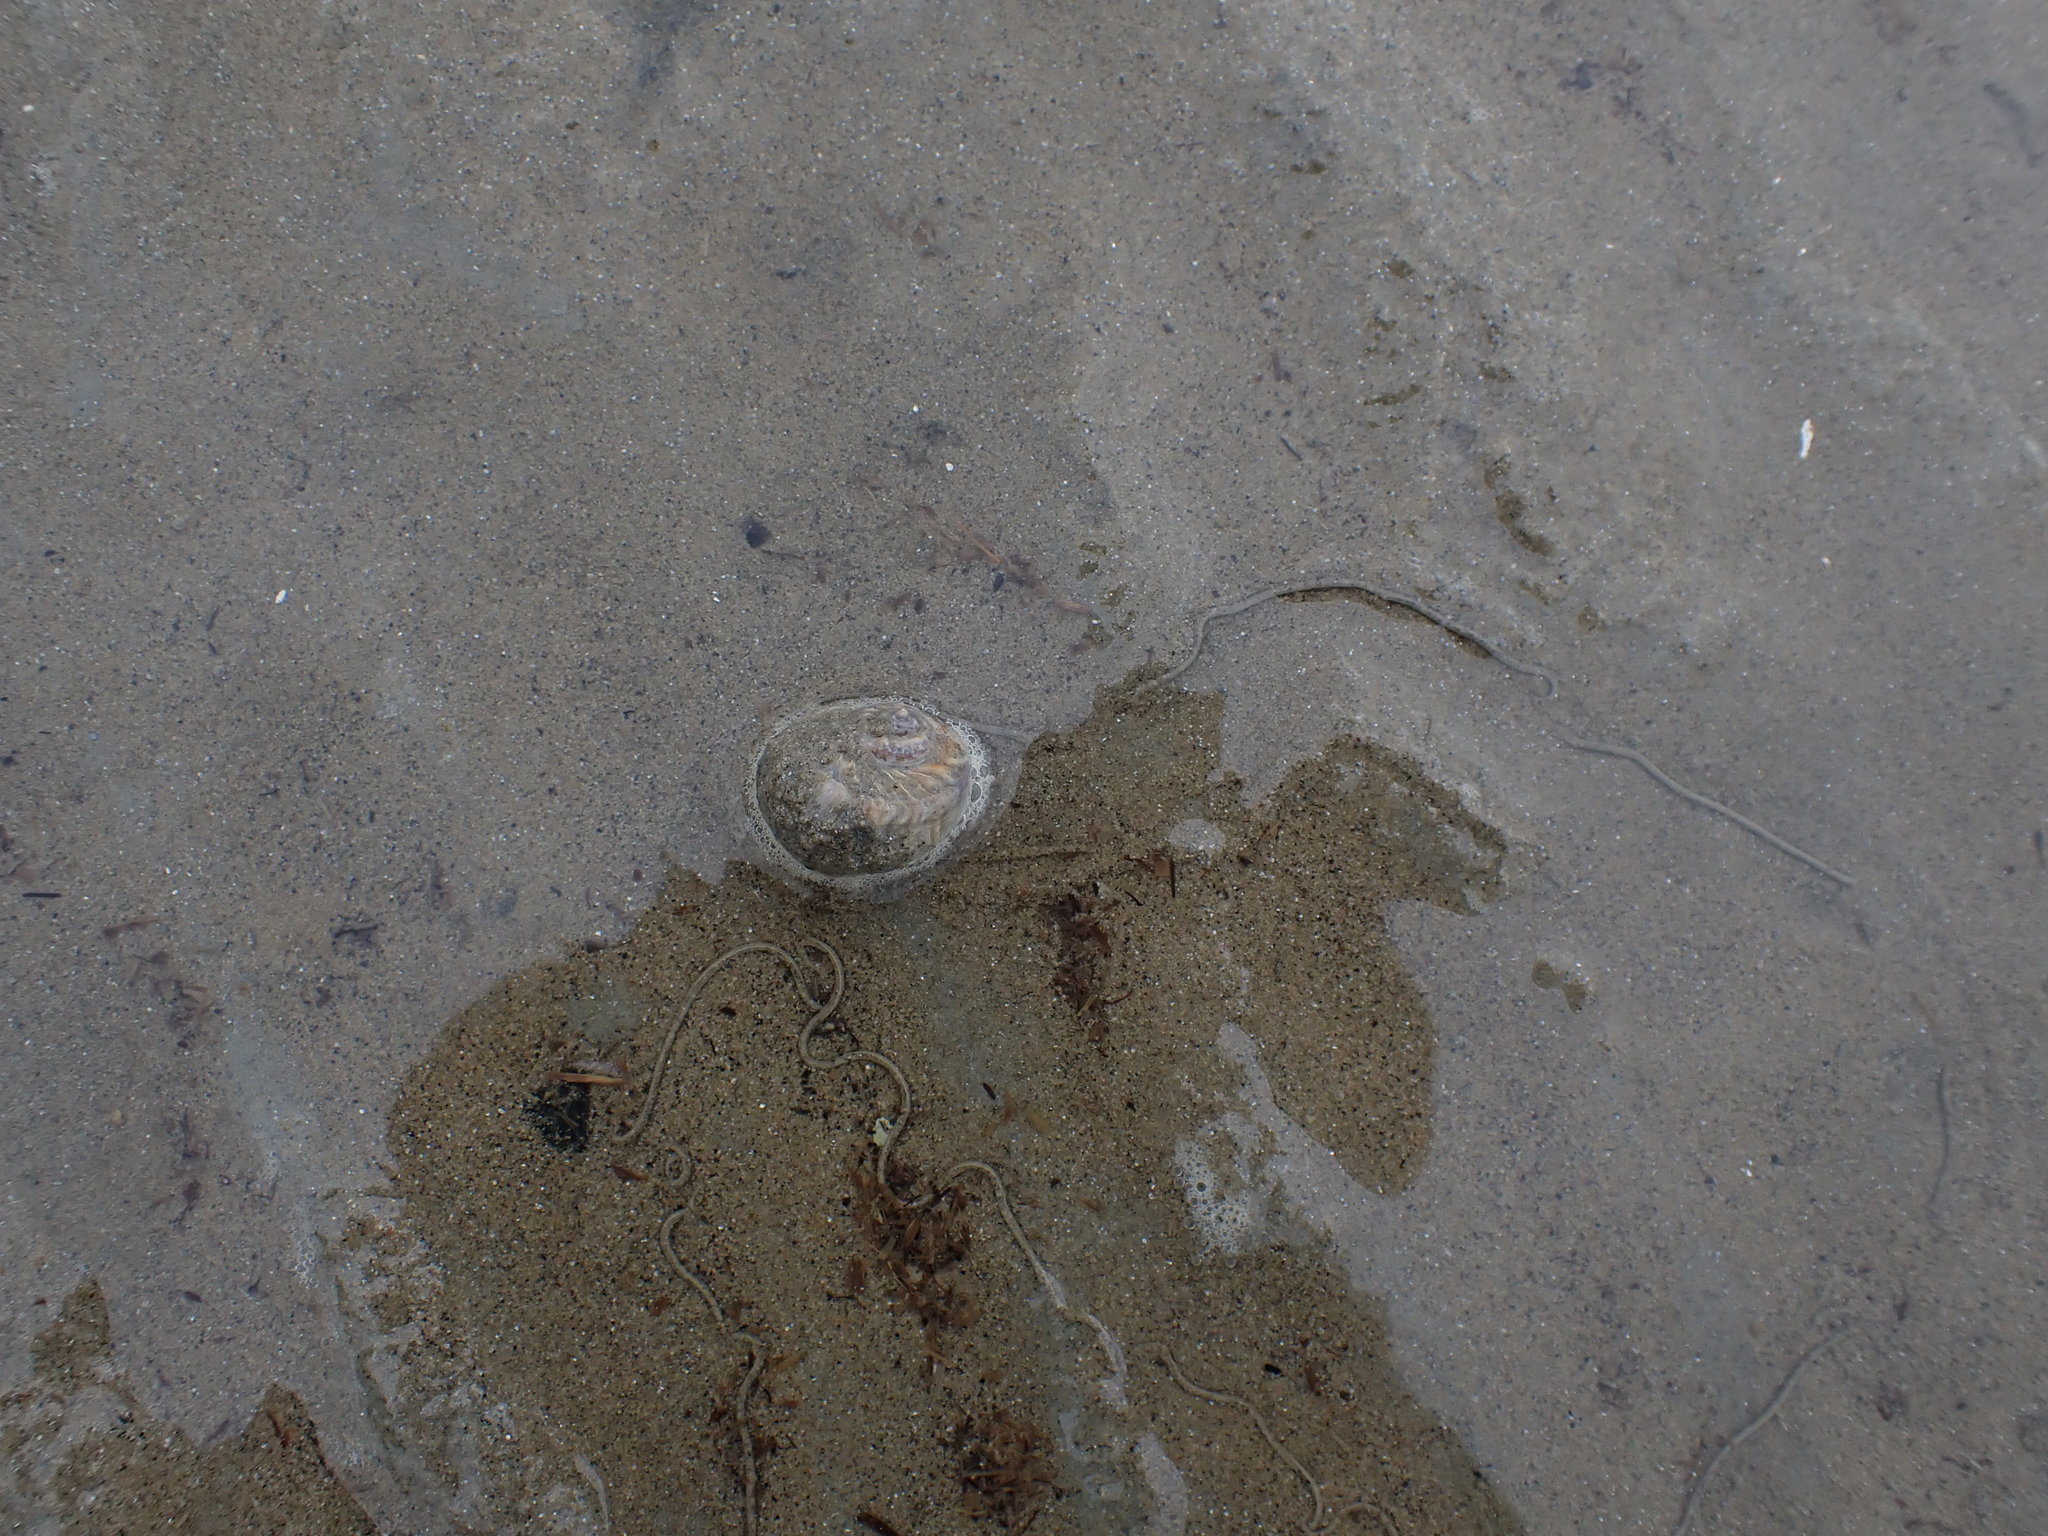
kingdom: Animalia
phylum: Mollusca
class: Gastropoda
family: Amphibolidae
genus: Amphibola
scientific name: Amphibola crenata
